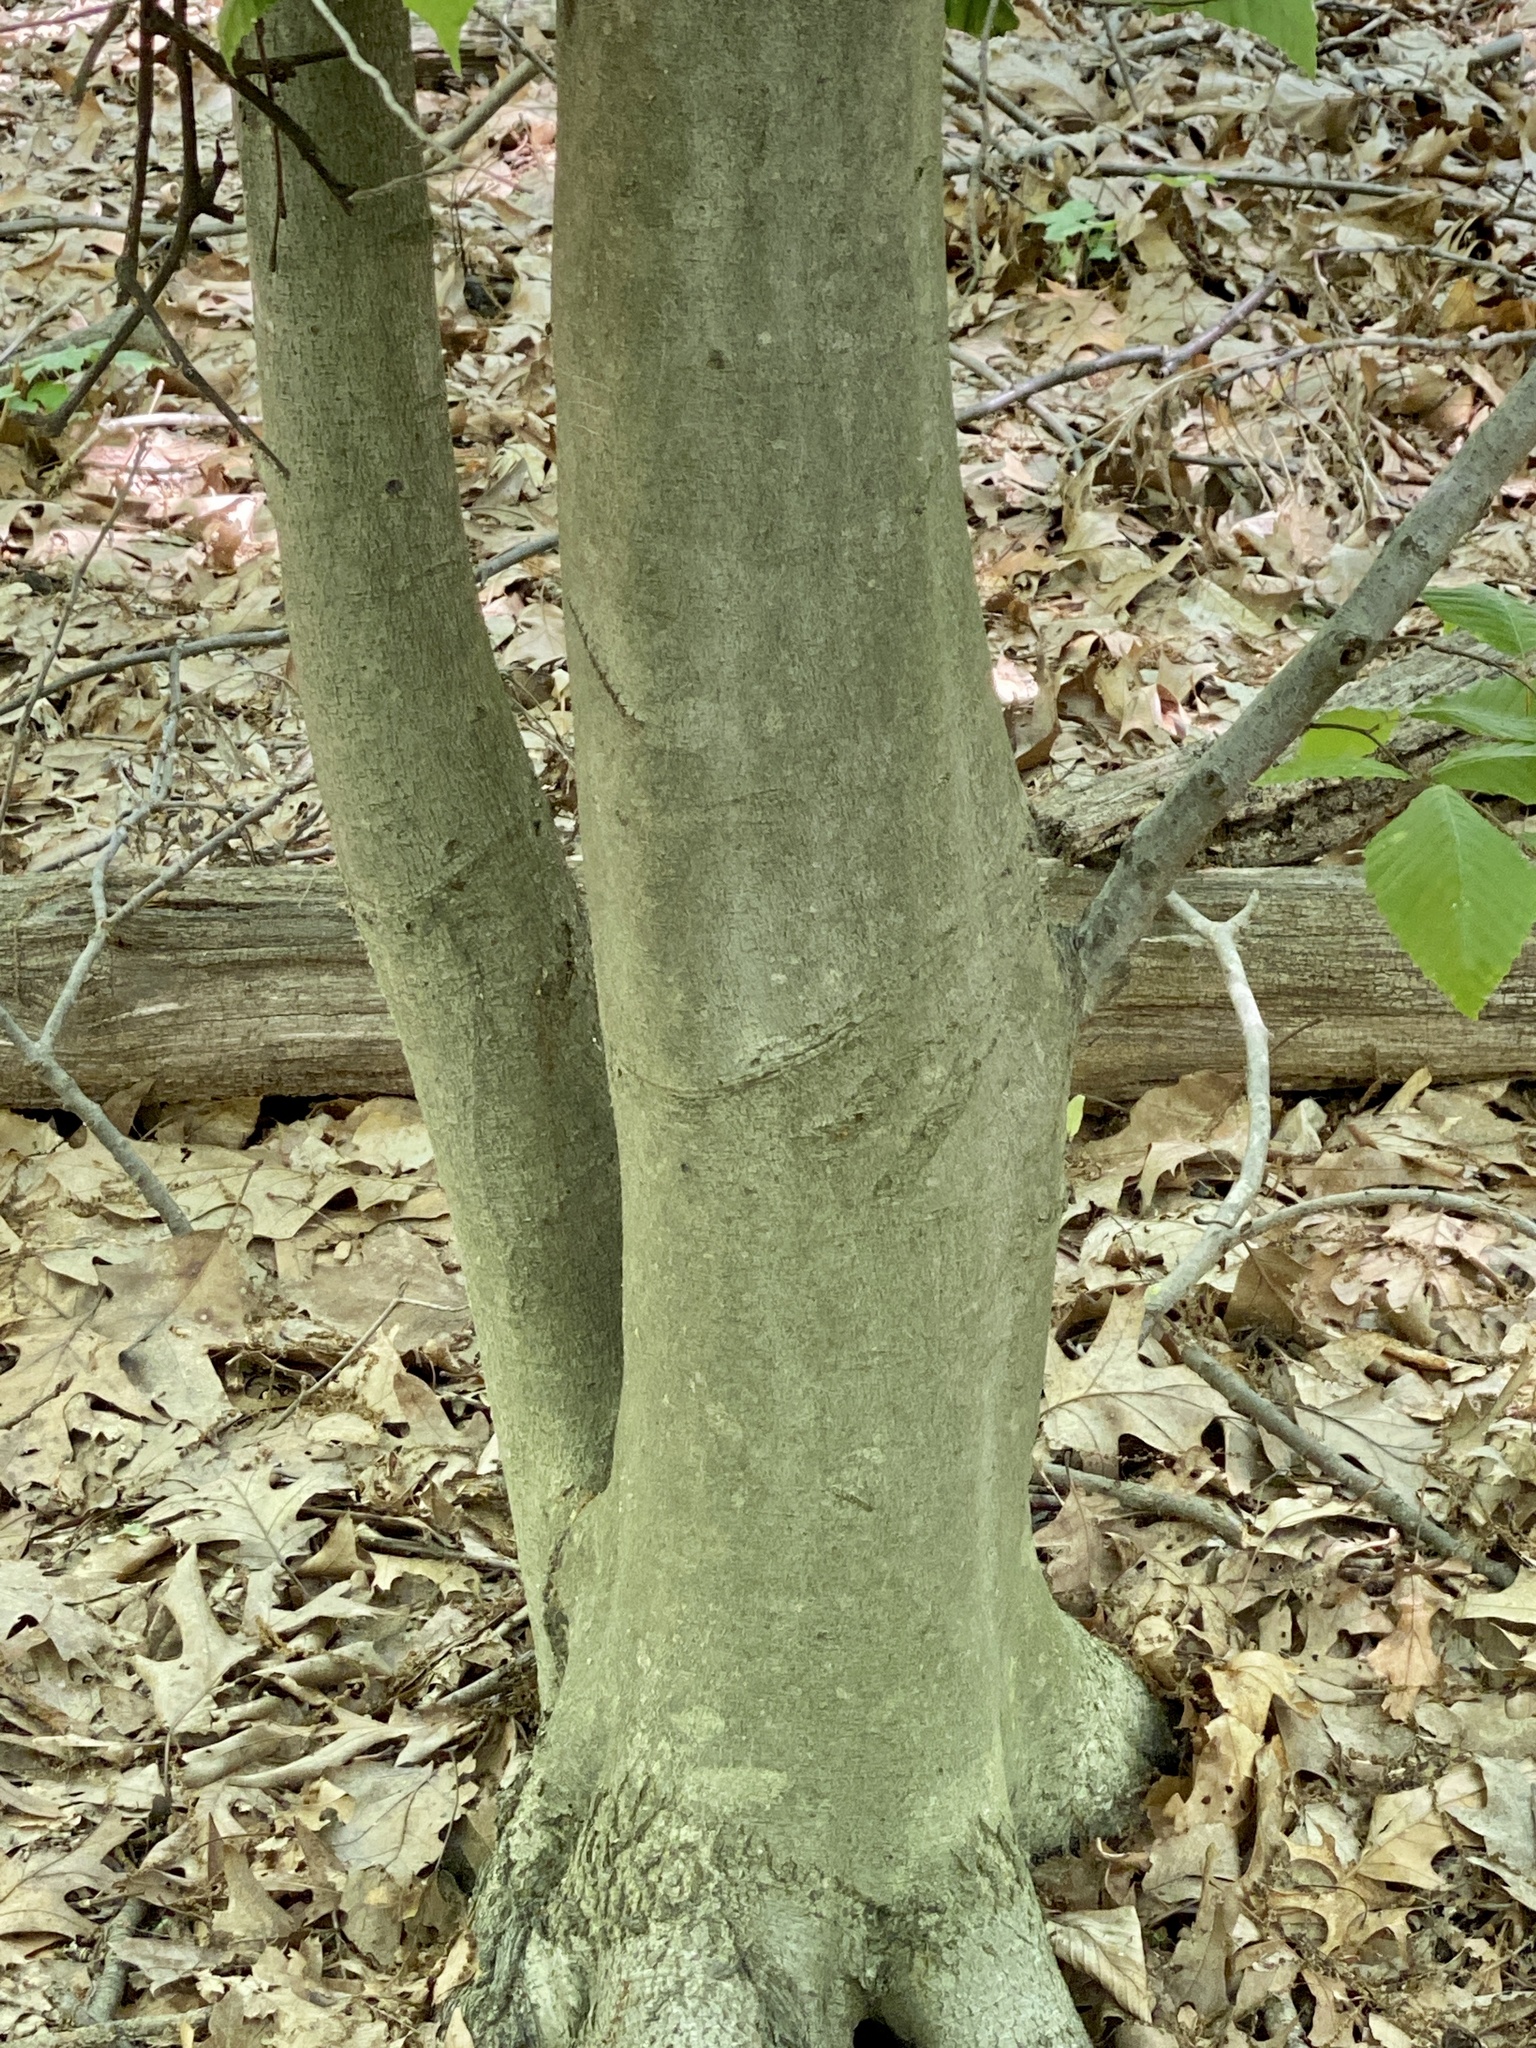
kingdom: Animalia
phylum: Nematoda
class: Chromadorea
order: Rhabditida
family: Anguinidae
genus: Litylenchus
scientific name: Litylenchus crenatae
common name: Beech leaf disease
